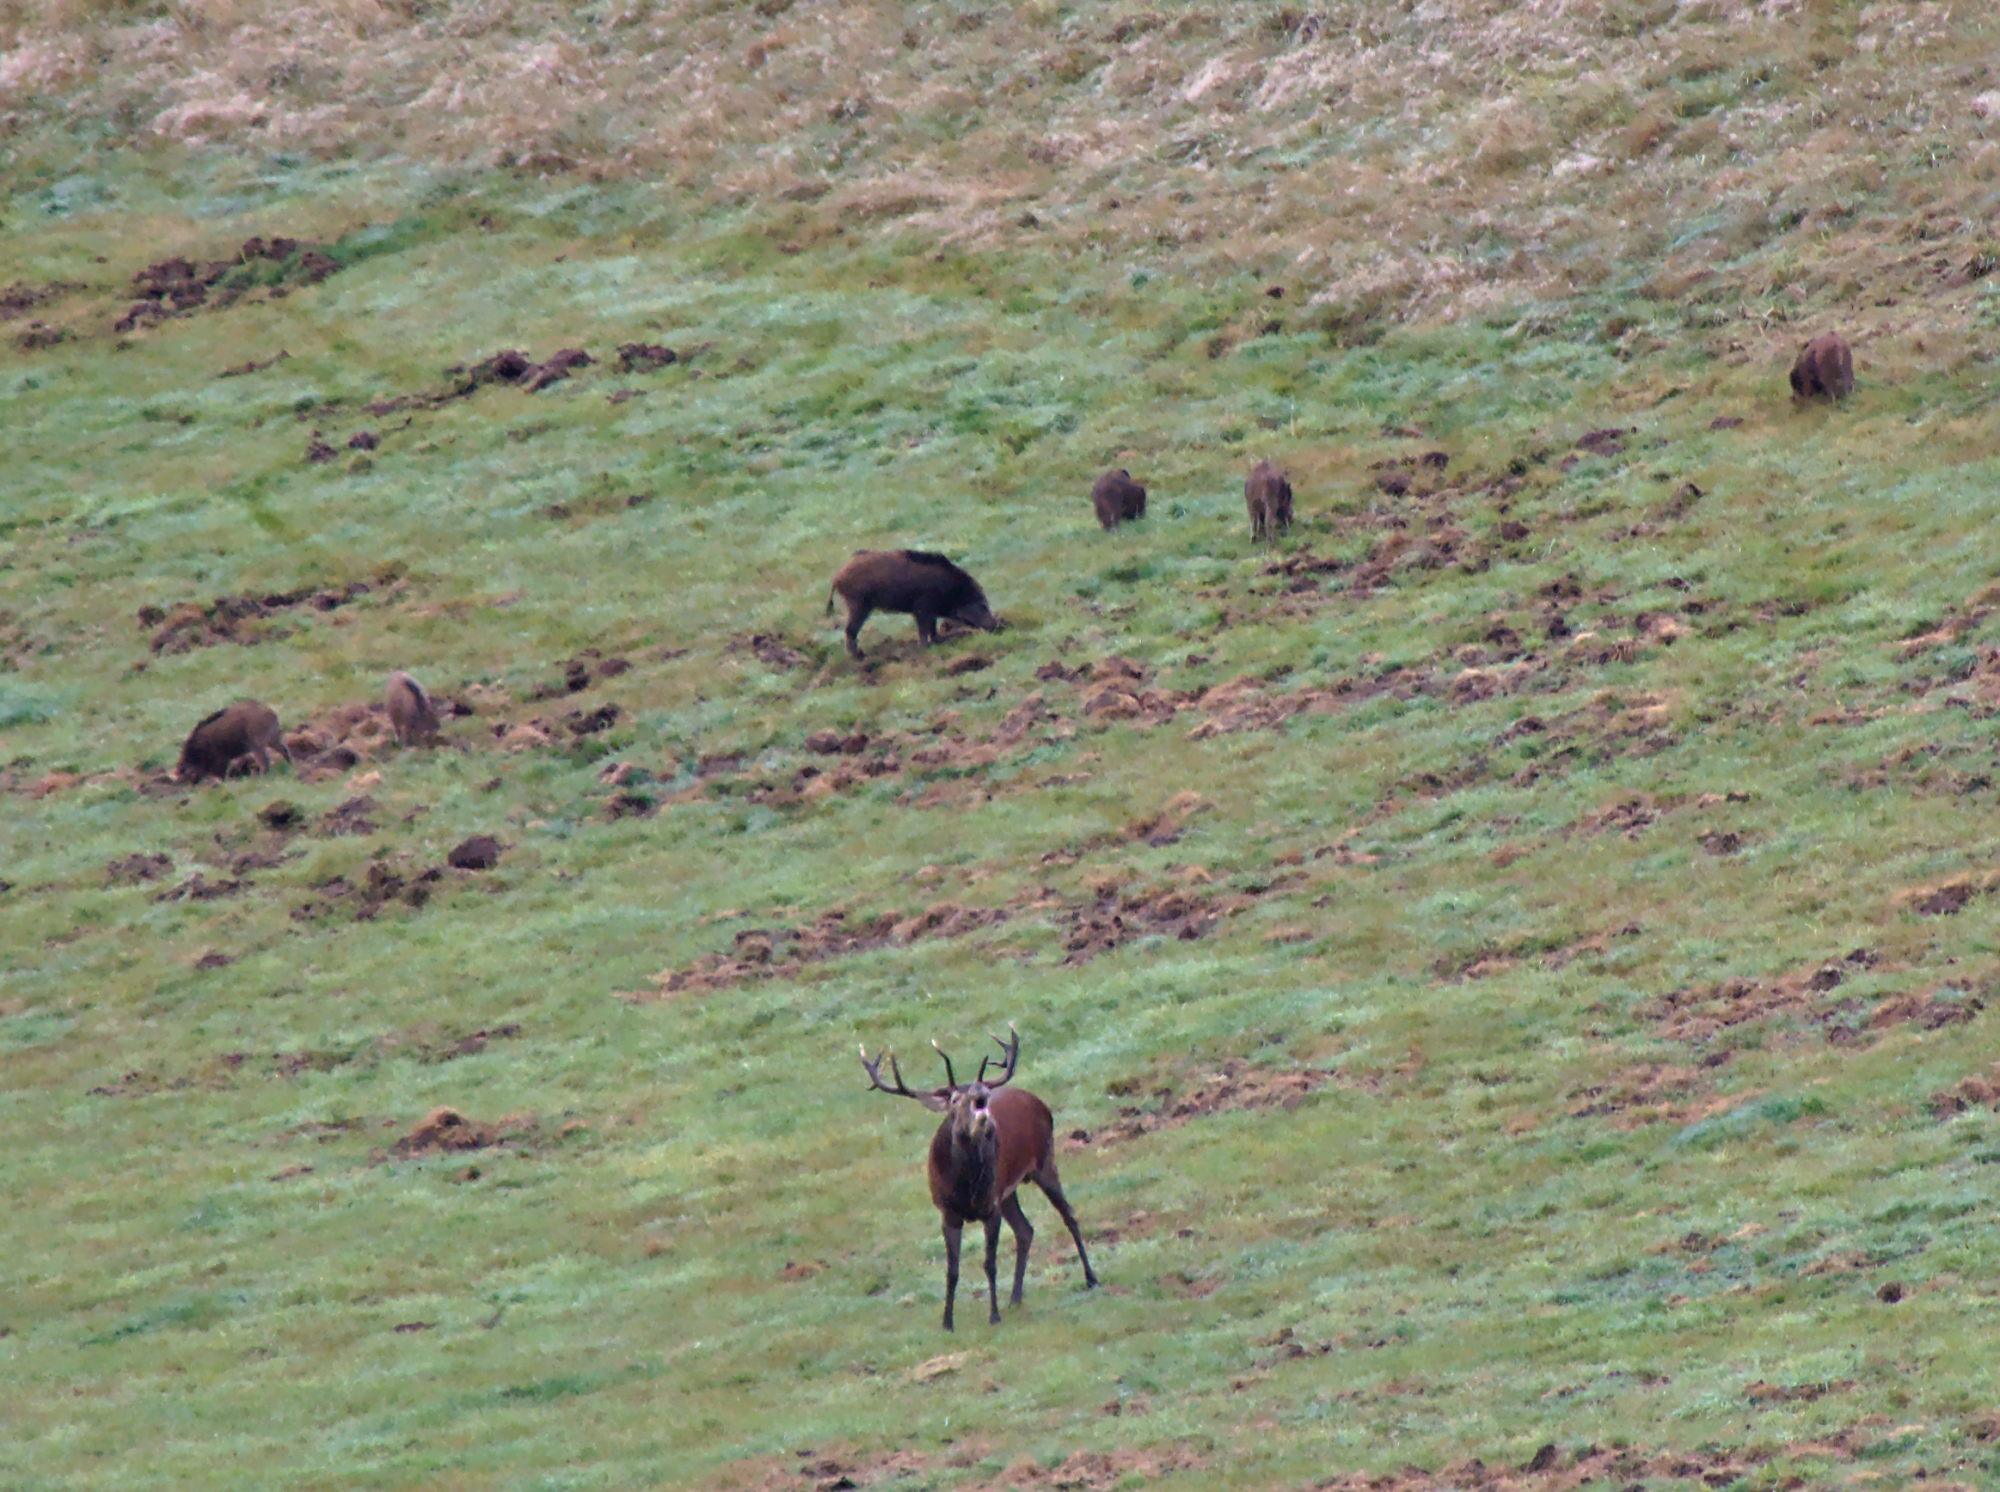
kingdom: Animalia
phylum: Chordata
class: Mammalia
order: Artiodactyla
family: Suidae
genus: Sus
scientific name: Sus scrofa
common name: Wild boar
